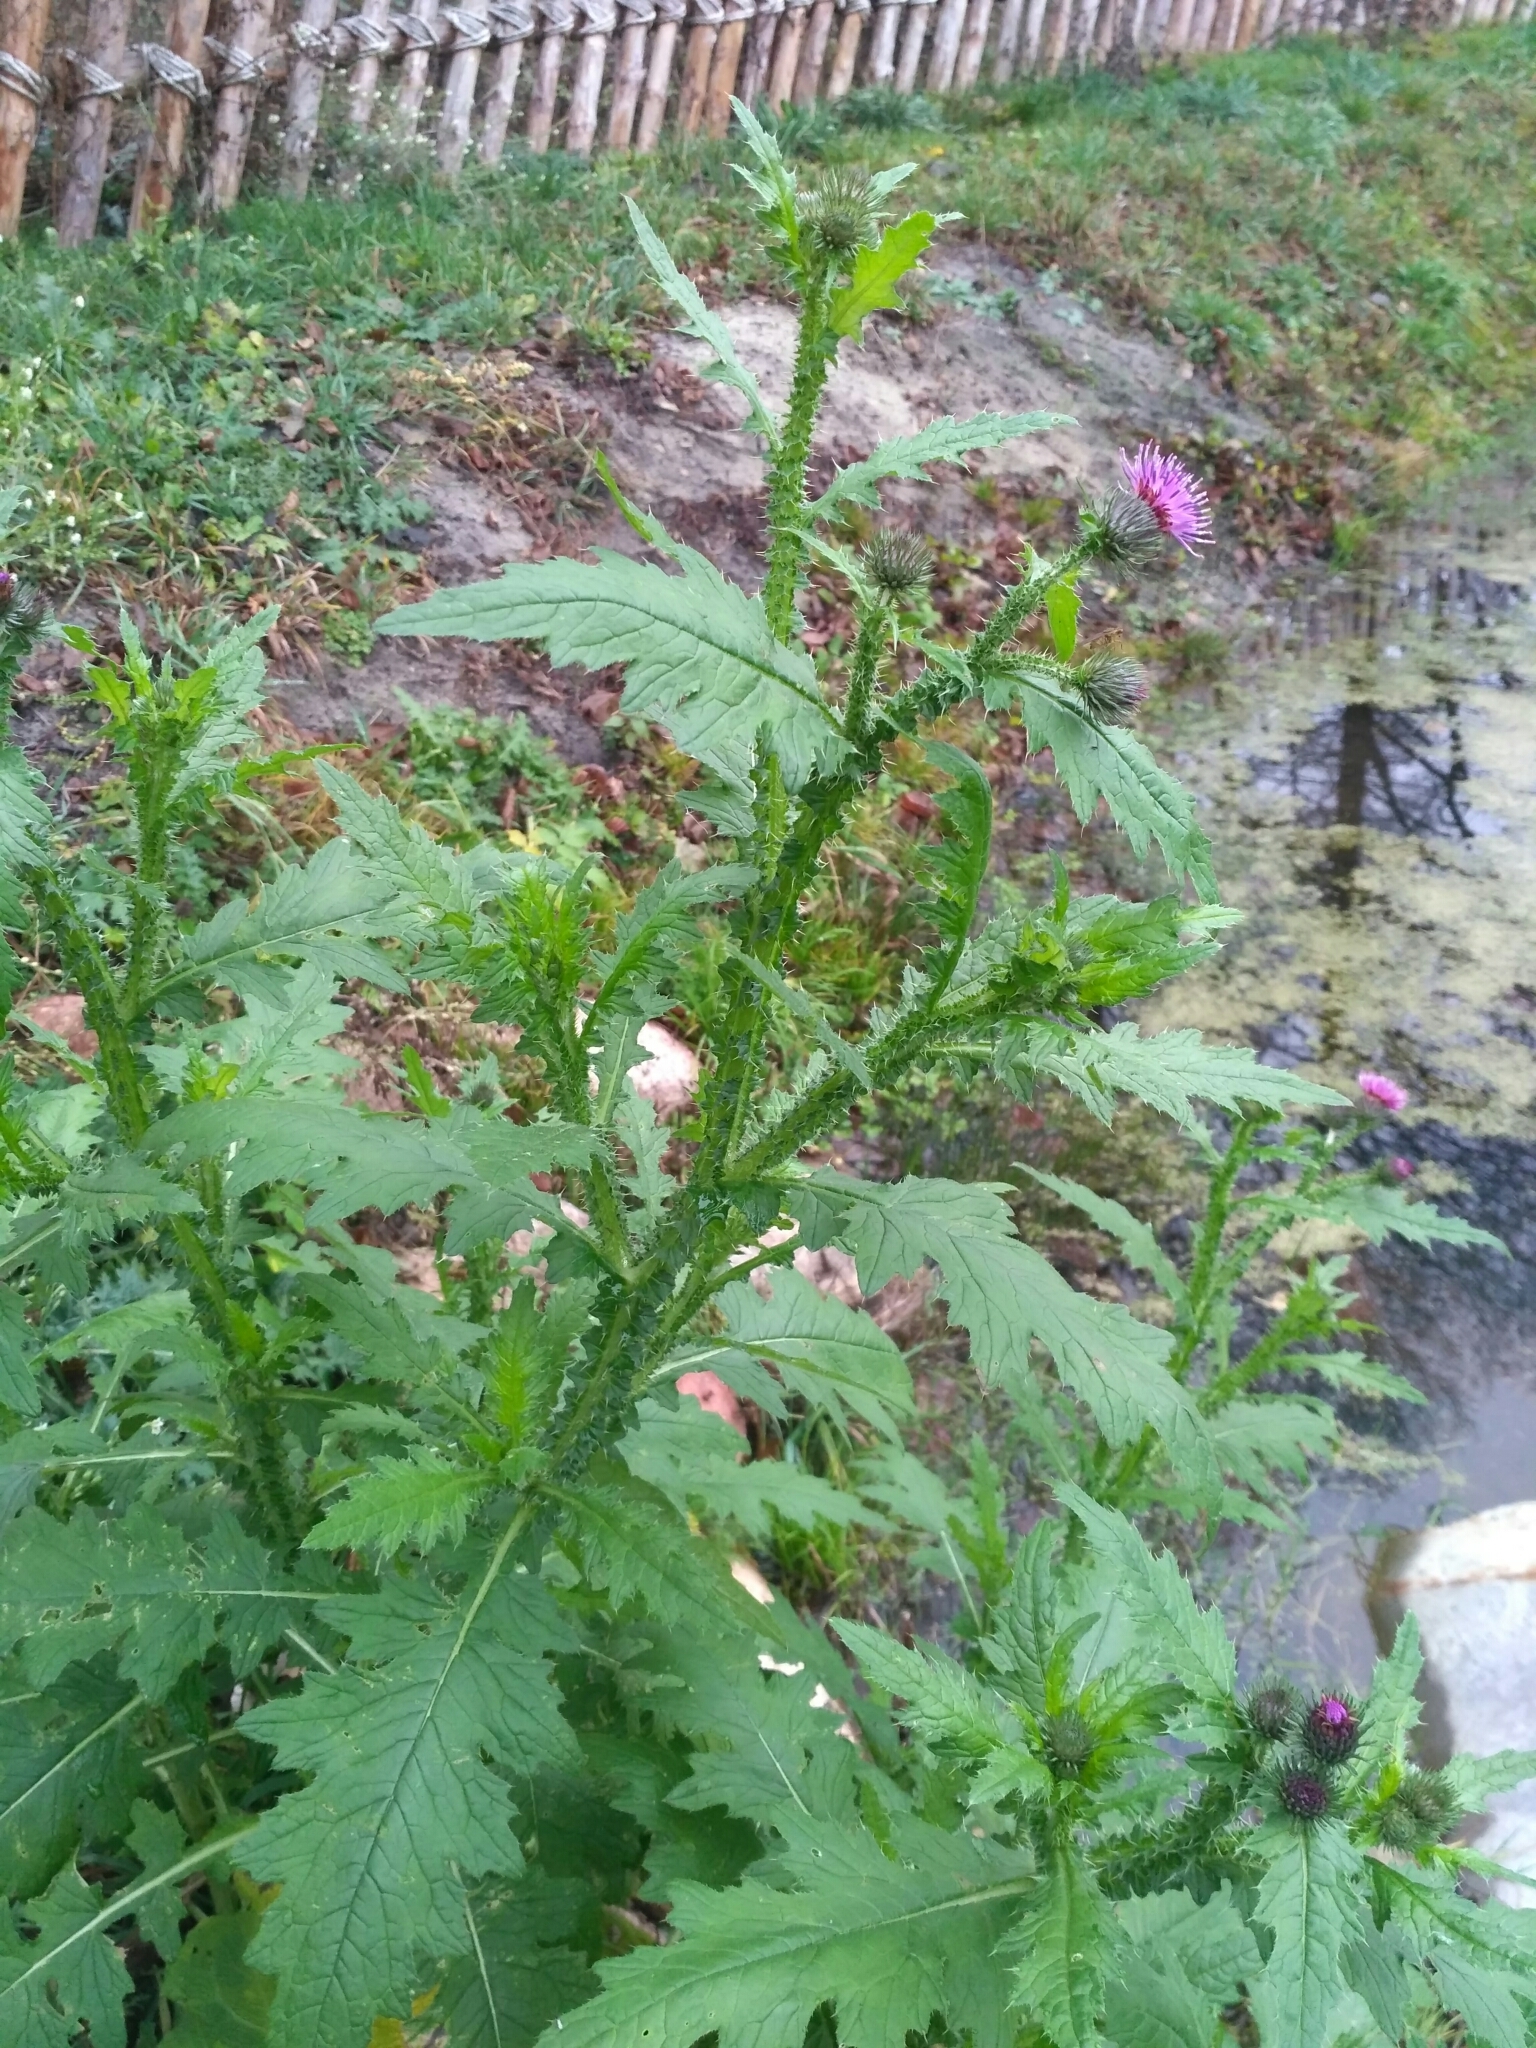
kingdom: Plantae
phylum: Tracheophyta
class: Magnoliopsida
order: Asterales
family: Asteraceae
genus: Carduus
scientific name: Carduus crispus
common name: Welted thistle
